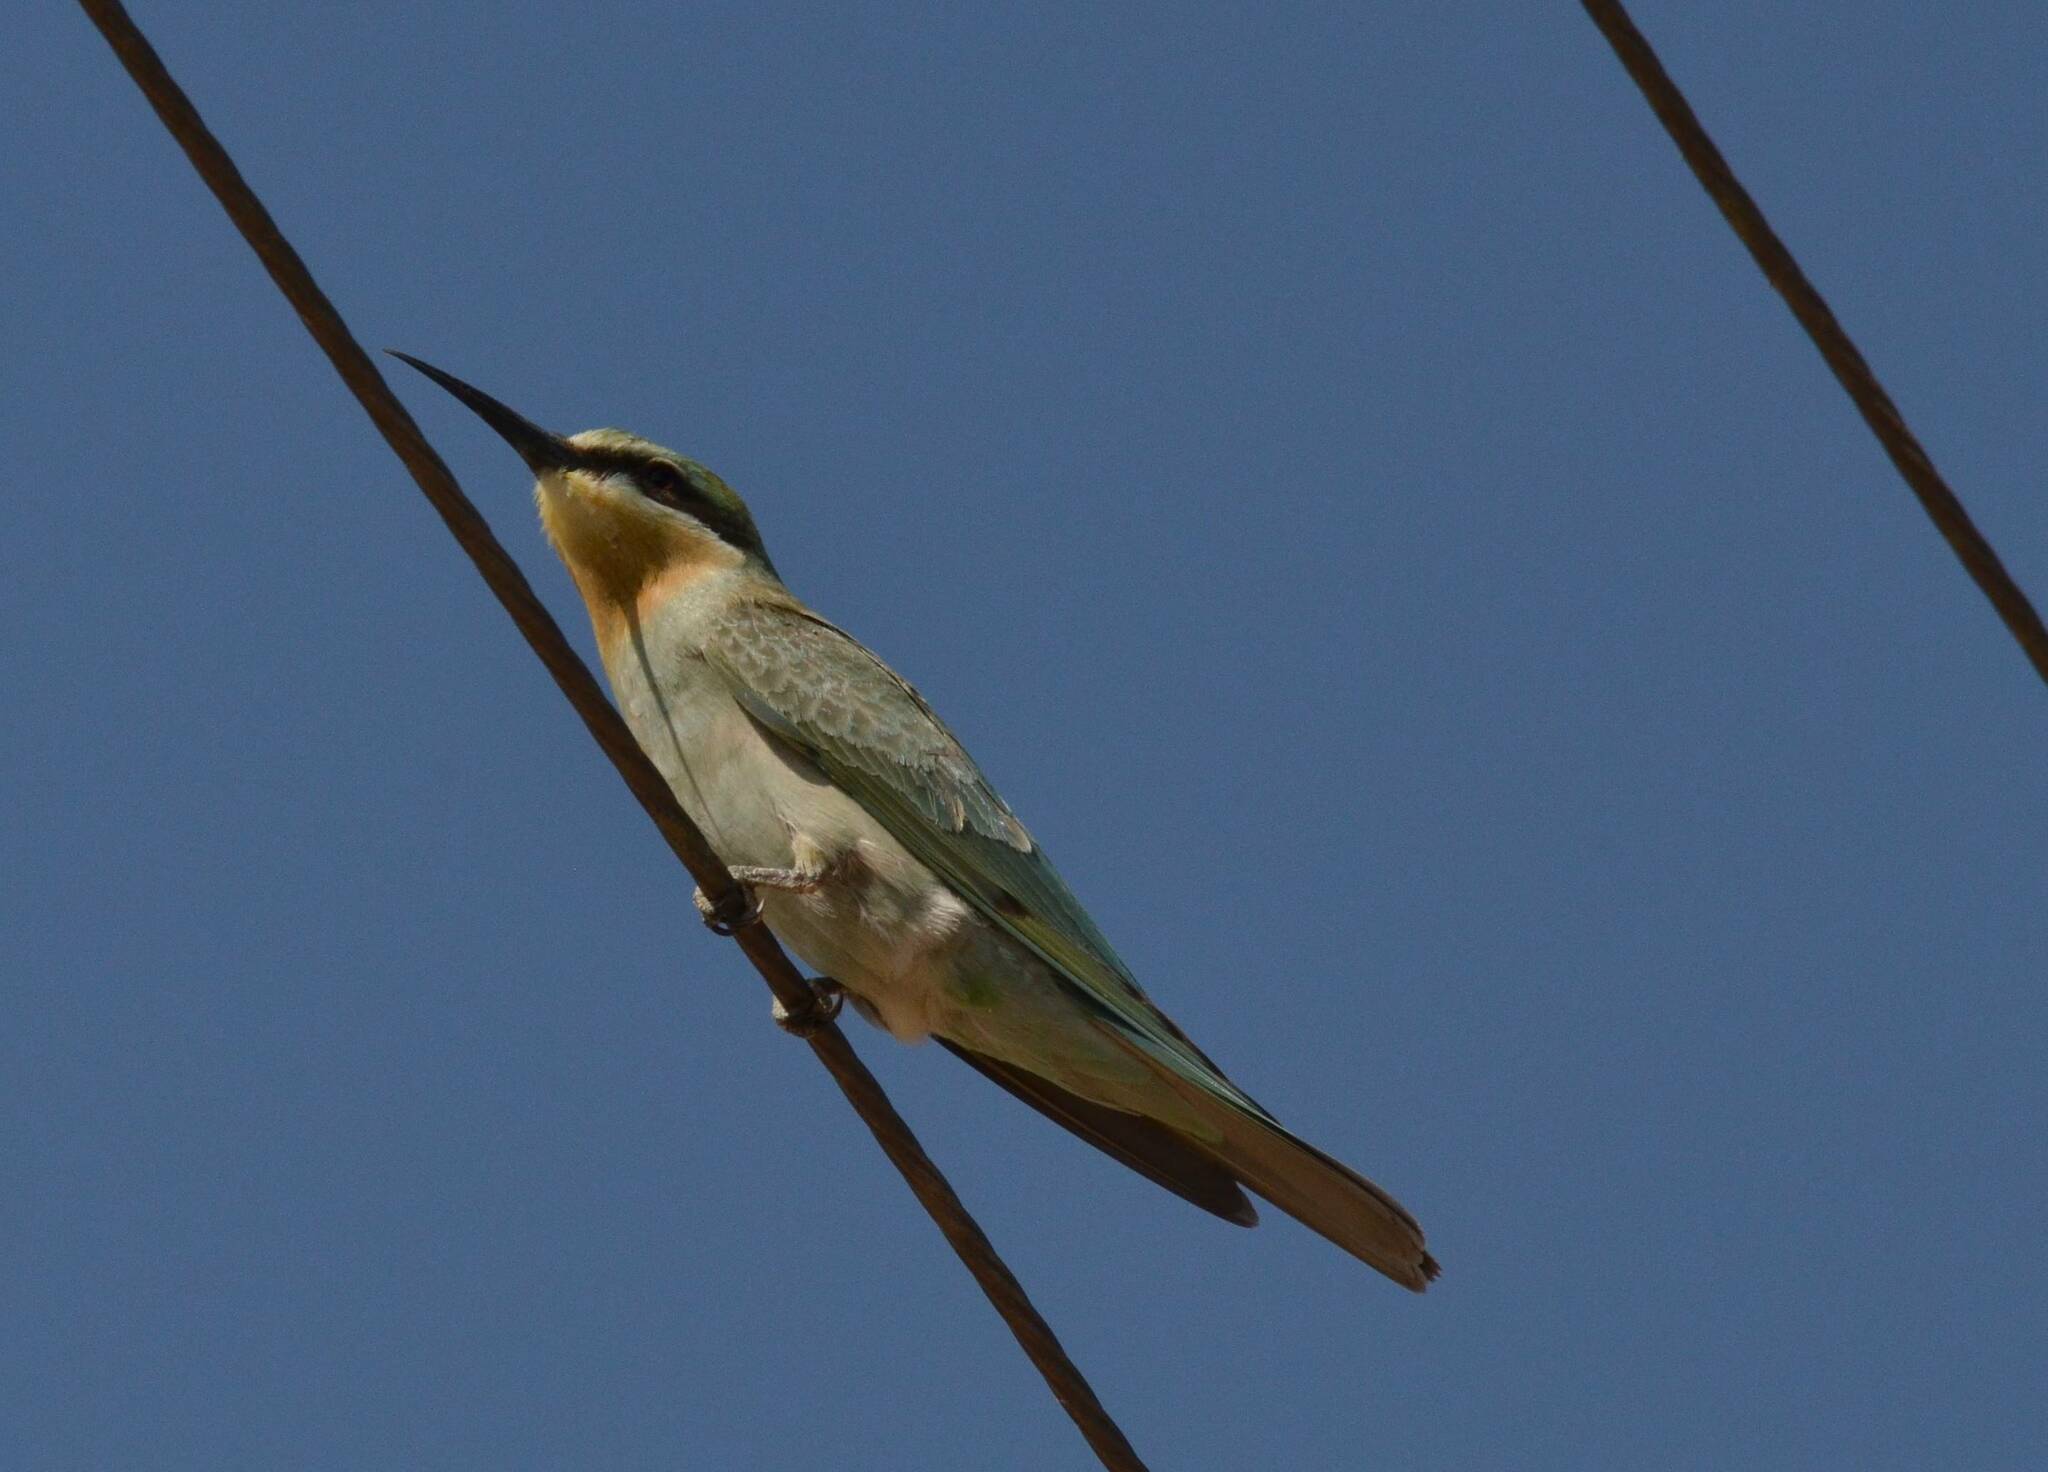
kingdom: Animalia
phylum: Chordata
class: Aves
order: Coraciiformes
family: Meropidae
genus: Merops
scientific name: Merops persicus
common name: Blue-cheeked bee-eater
